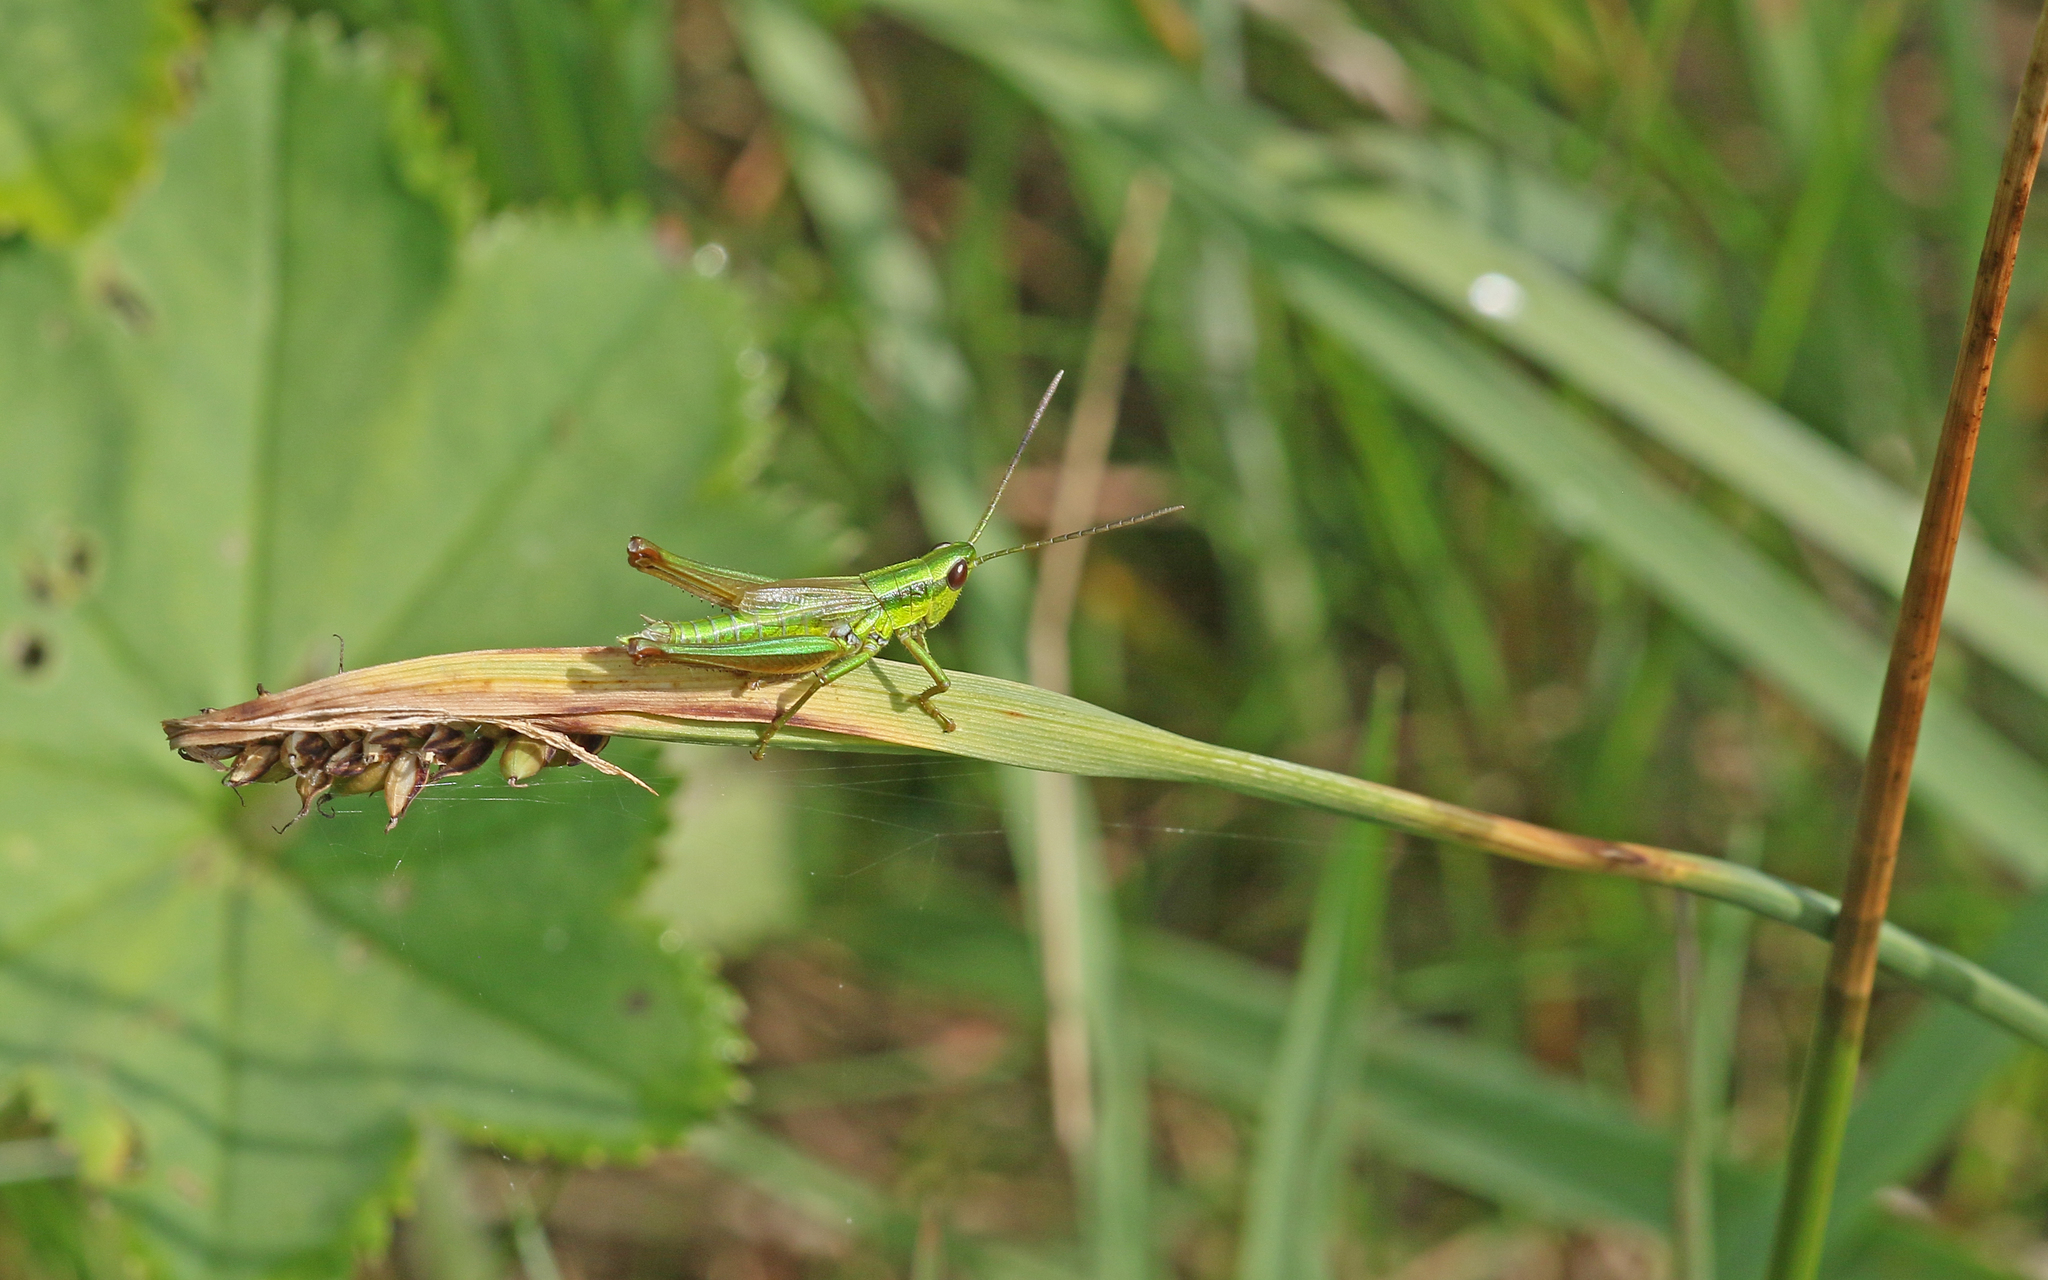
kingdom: Animalia
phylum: Arthropoda
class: Insecta
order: Orthoptera
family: Acrididae
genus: Euthystira
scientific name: Euthystira brachyptera
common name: Small gold grasshopper
